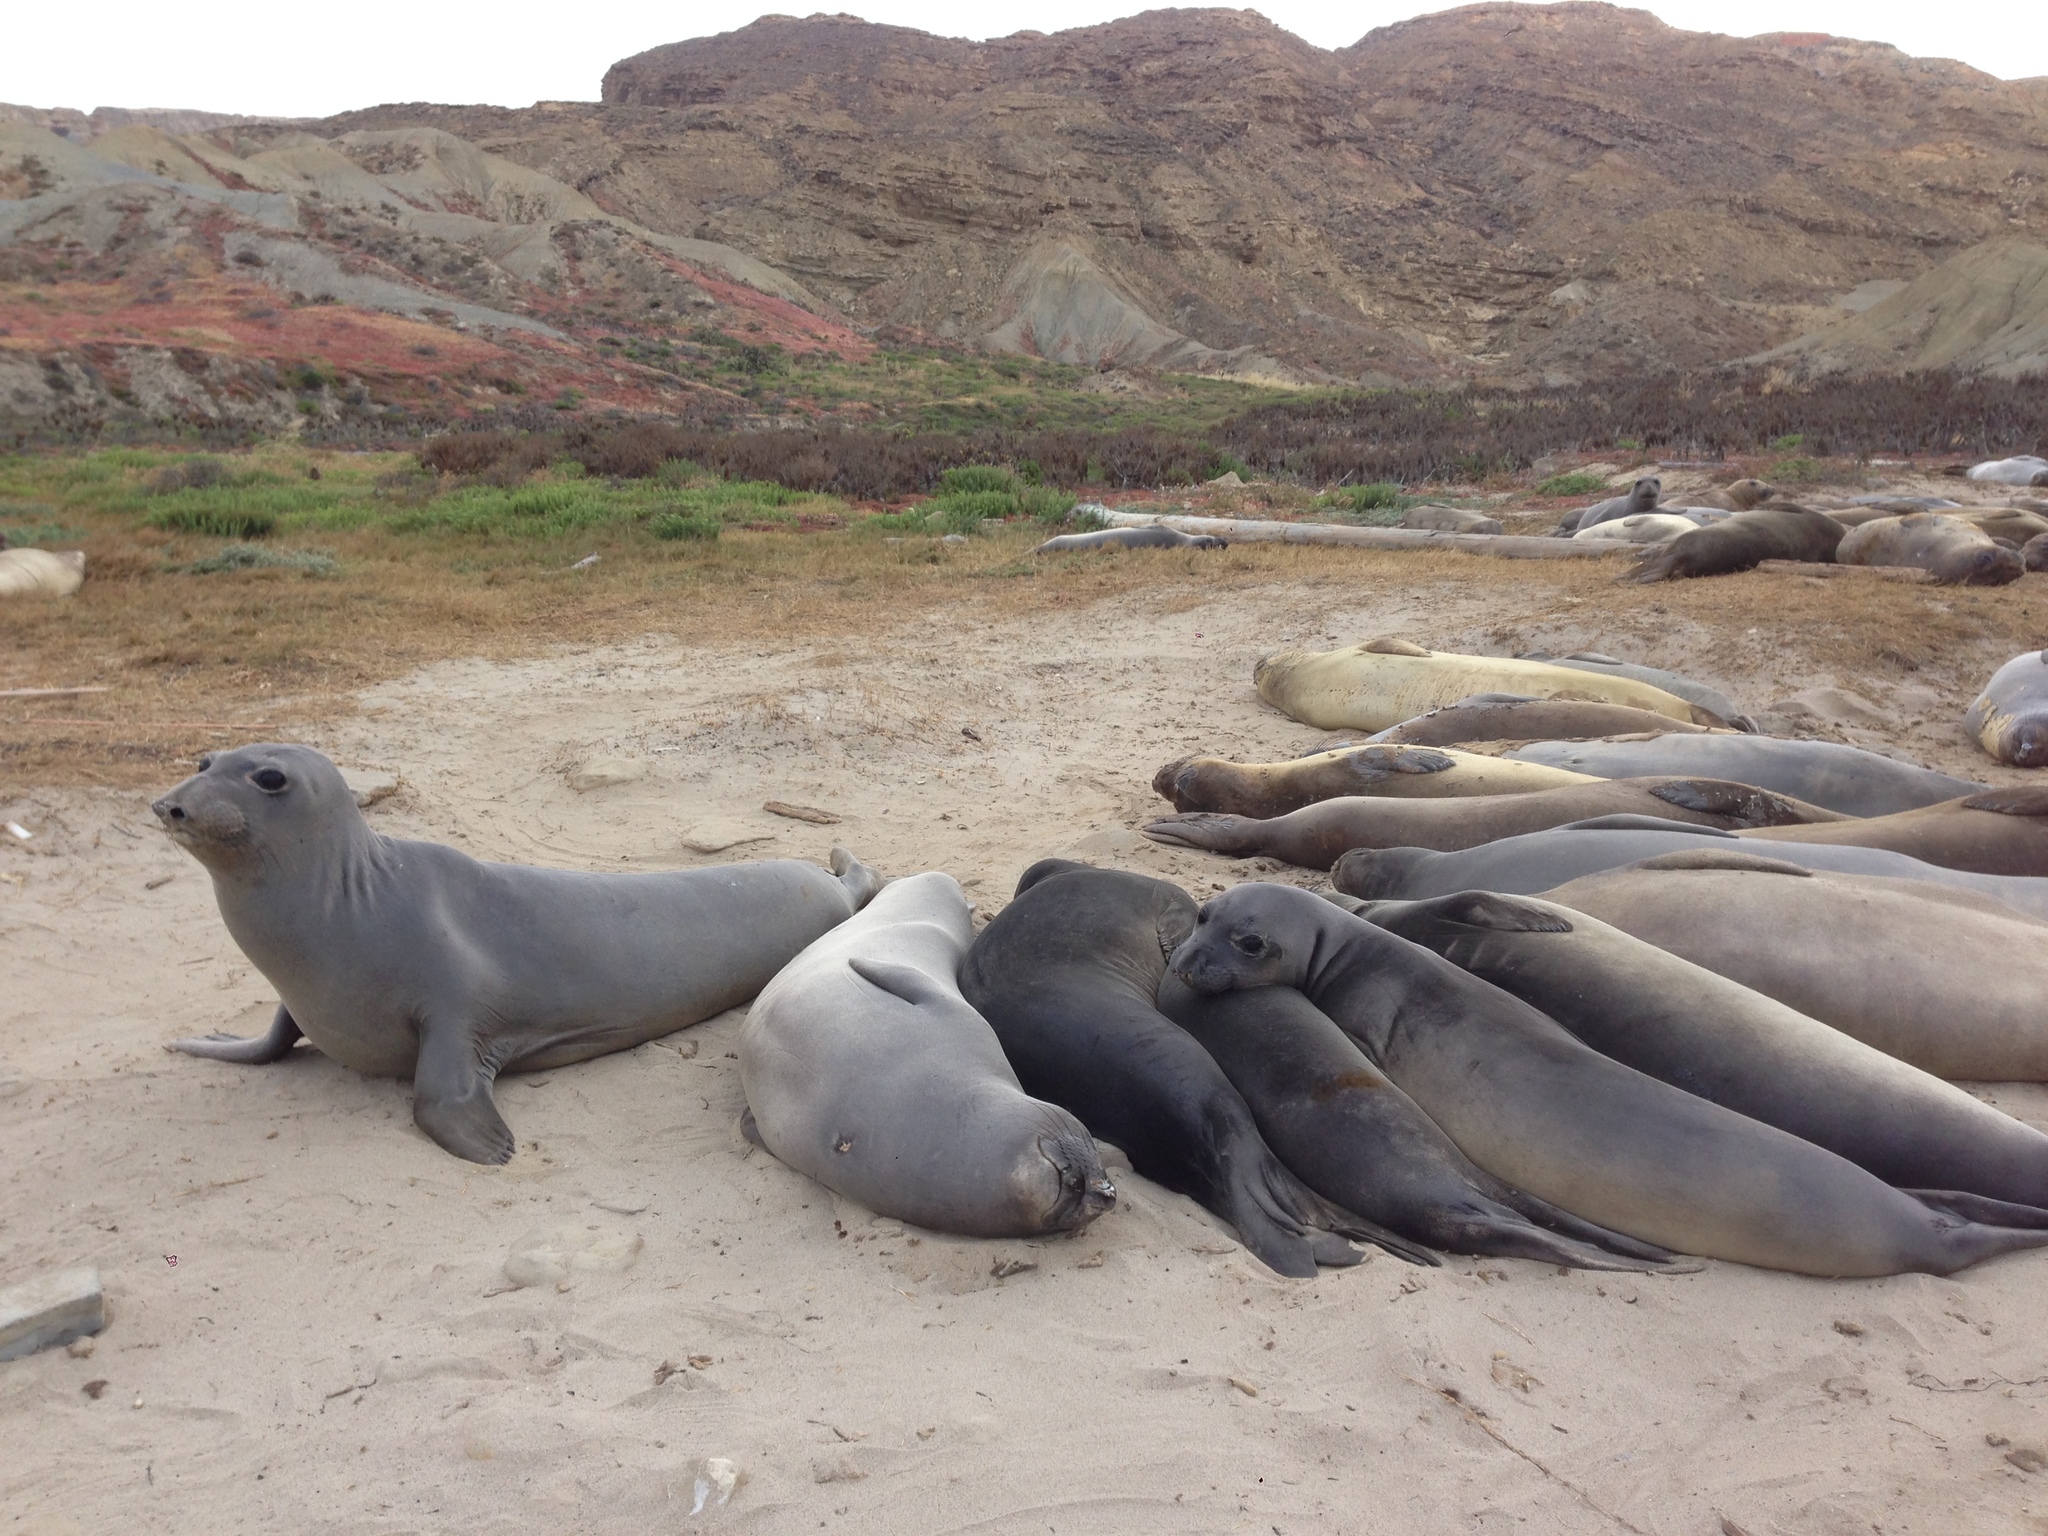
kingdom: Animalia
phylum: Chordata
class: Mammalia
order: Carnivora
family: Phocidae
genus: Mirounga
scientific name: Mirounga angustirostris
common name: Northern elephant seal
